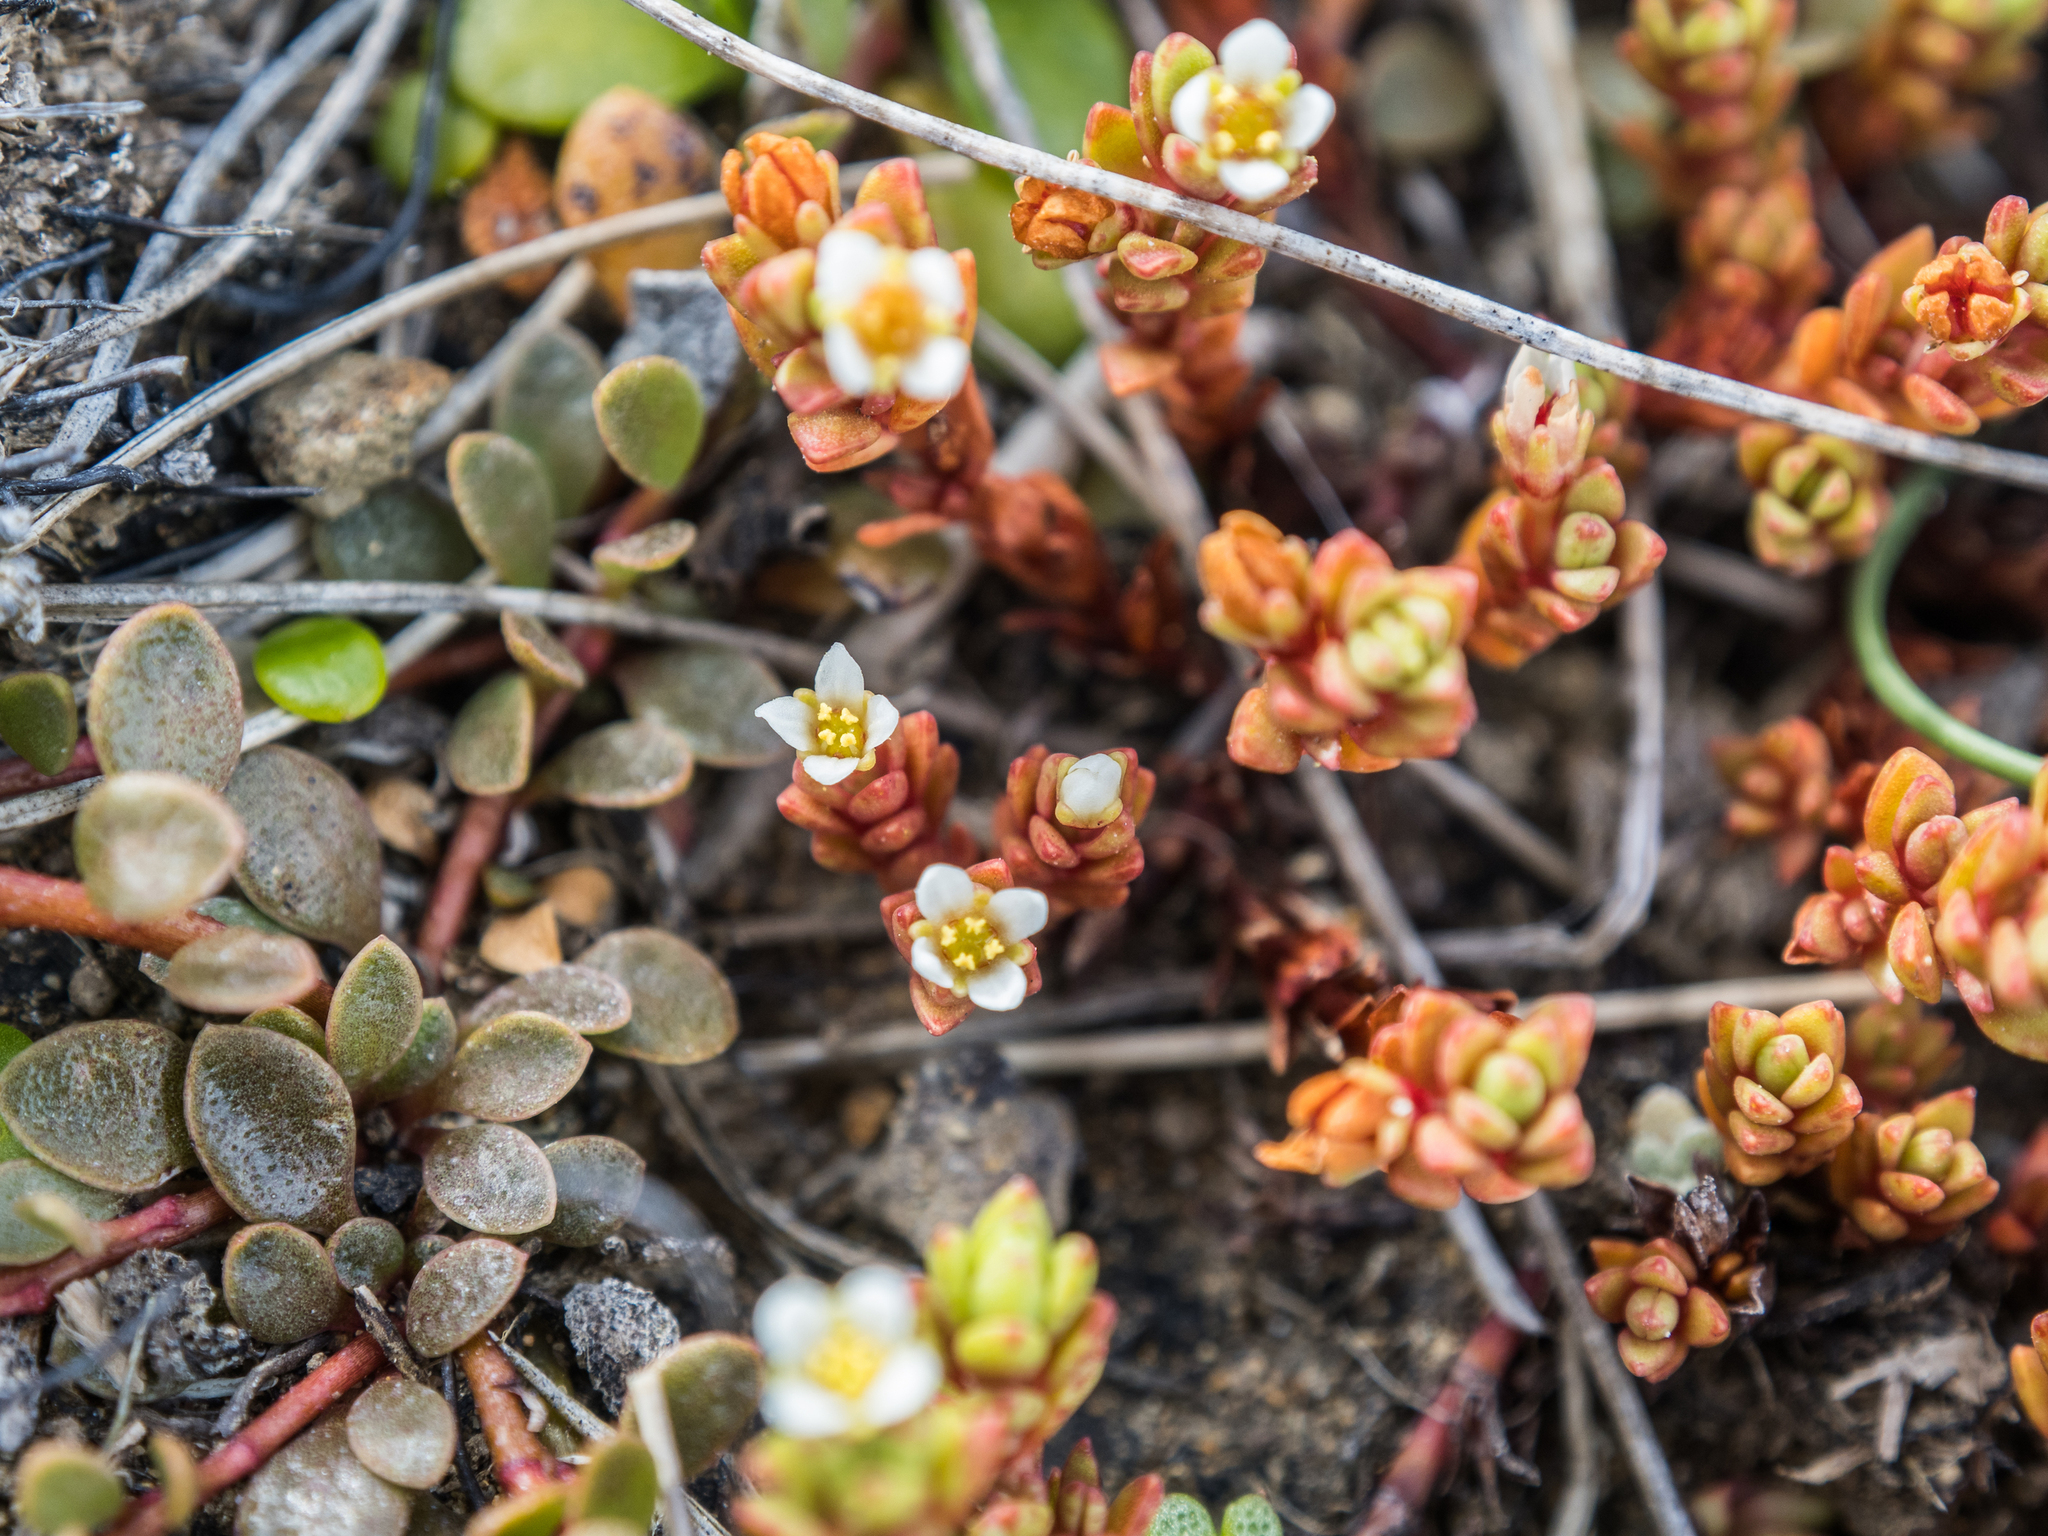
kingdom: Plantae
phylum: Tracheophyta
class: Magnoliopsida
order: Saxifragales
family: Crassulaceae
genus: Crassula
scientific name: Crassula moschata
